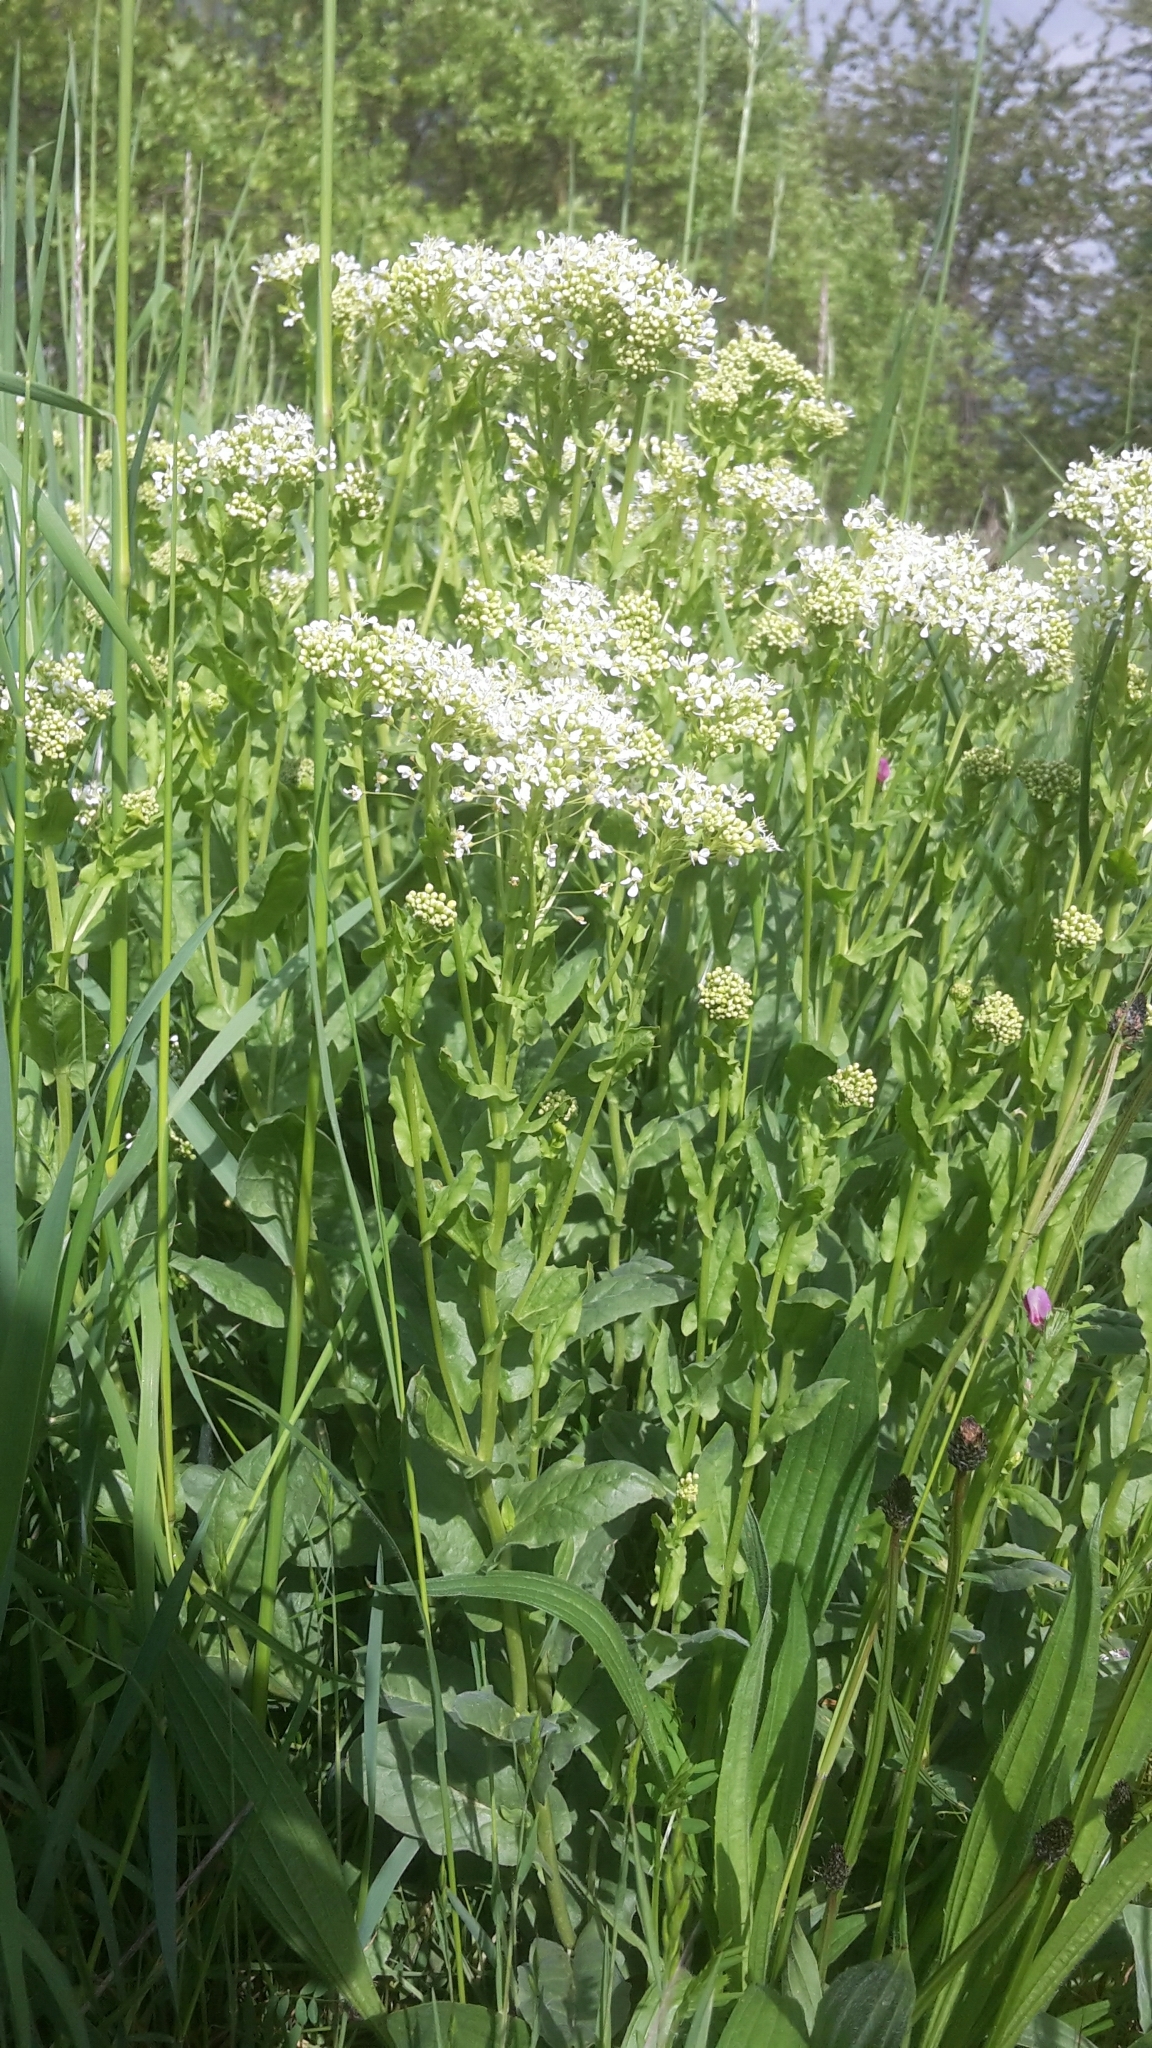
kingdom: Plantae
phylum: Tracheophyta
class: Magnoliopsida
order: Brassicales
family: Brassicaceae
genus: Lepidium
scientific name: Lepidium draba
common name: Hoary cress
